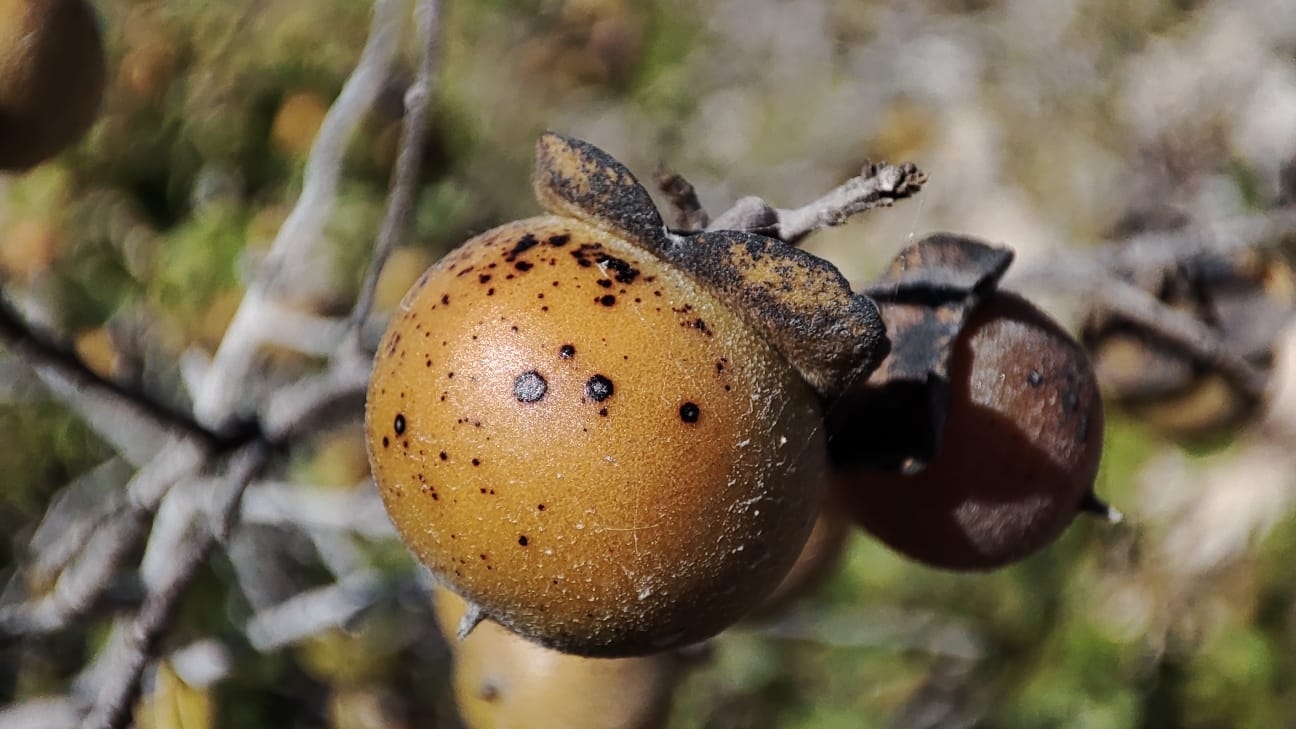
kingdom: Plantae
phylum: Tracheophyta
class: Magnoliopsida
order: Ericales
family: Ebenaceae
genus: Diospyros
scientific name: Diospyros intricata
